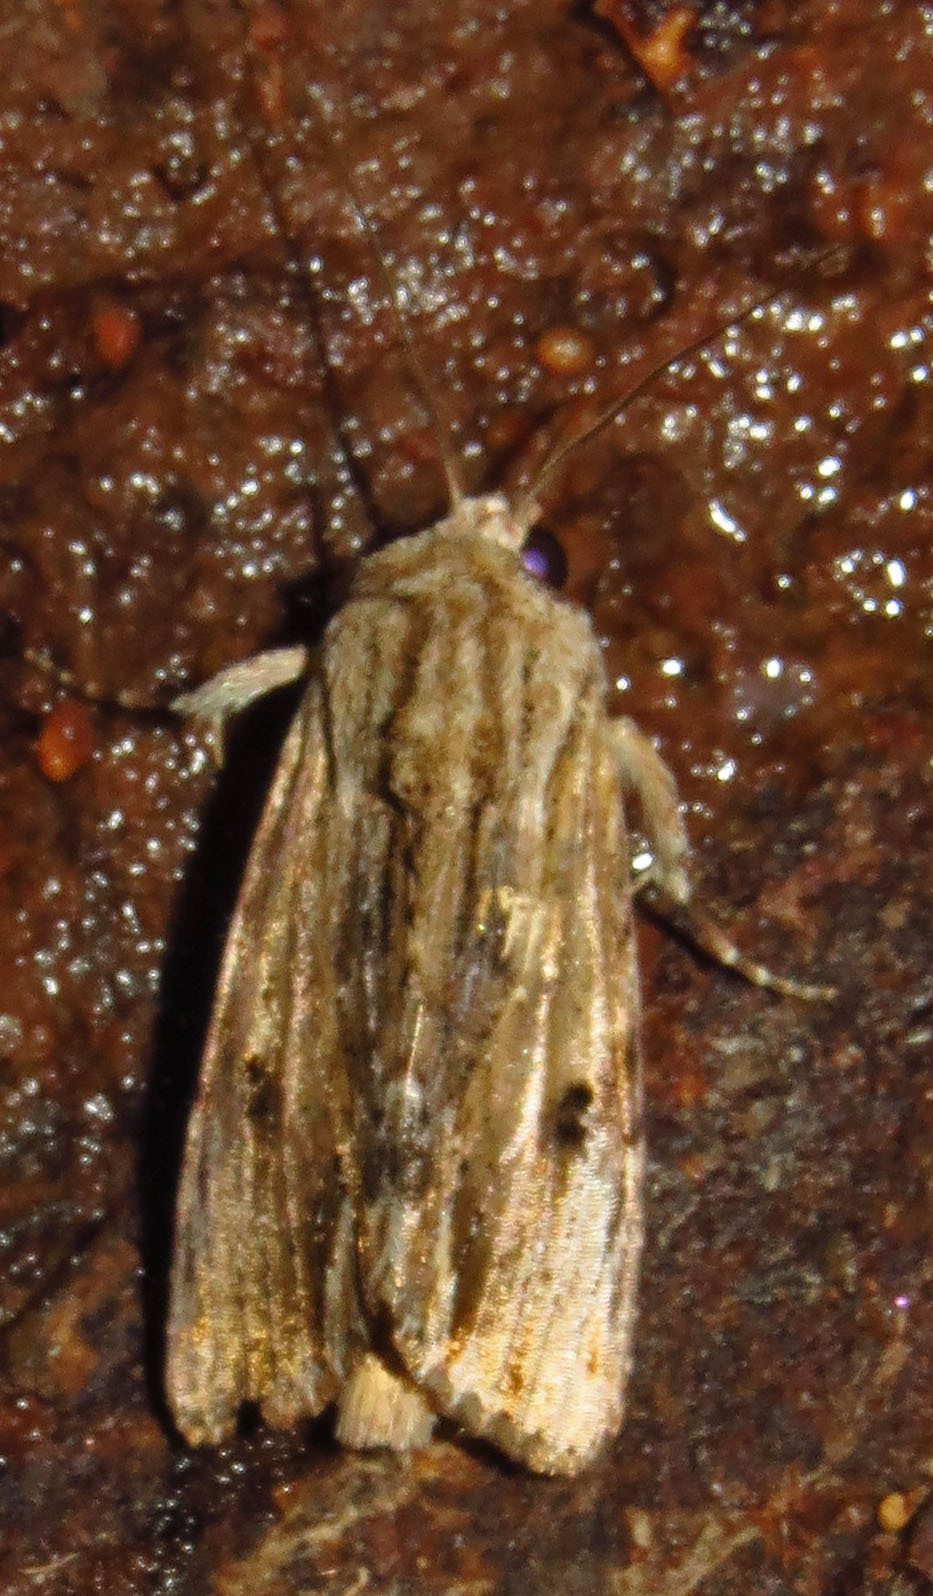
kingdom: Animalia
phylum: Arthropoda
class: Insecta
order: Lepidoptera
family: Noctuidae
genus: Spodoptera
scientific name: Spodoptera eridania
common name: Southern army worm
